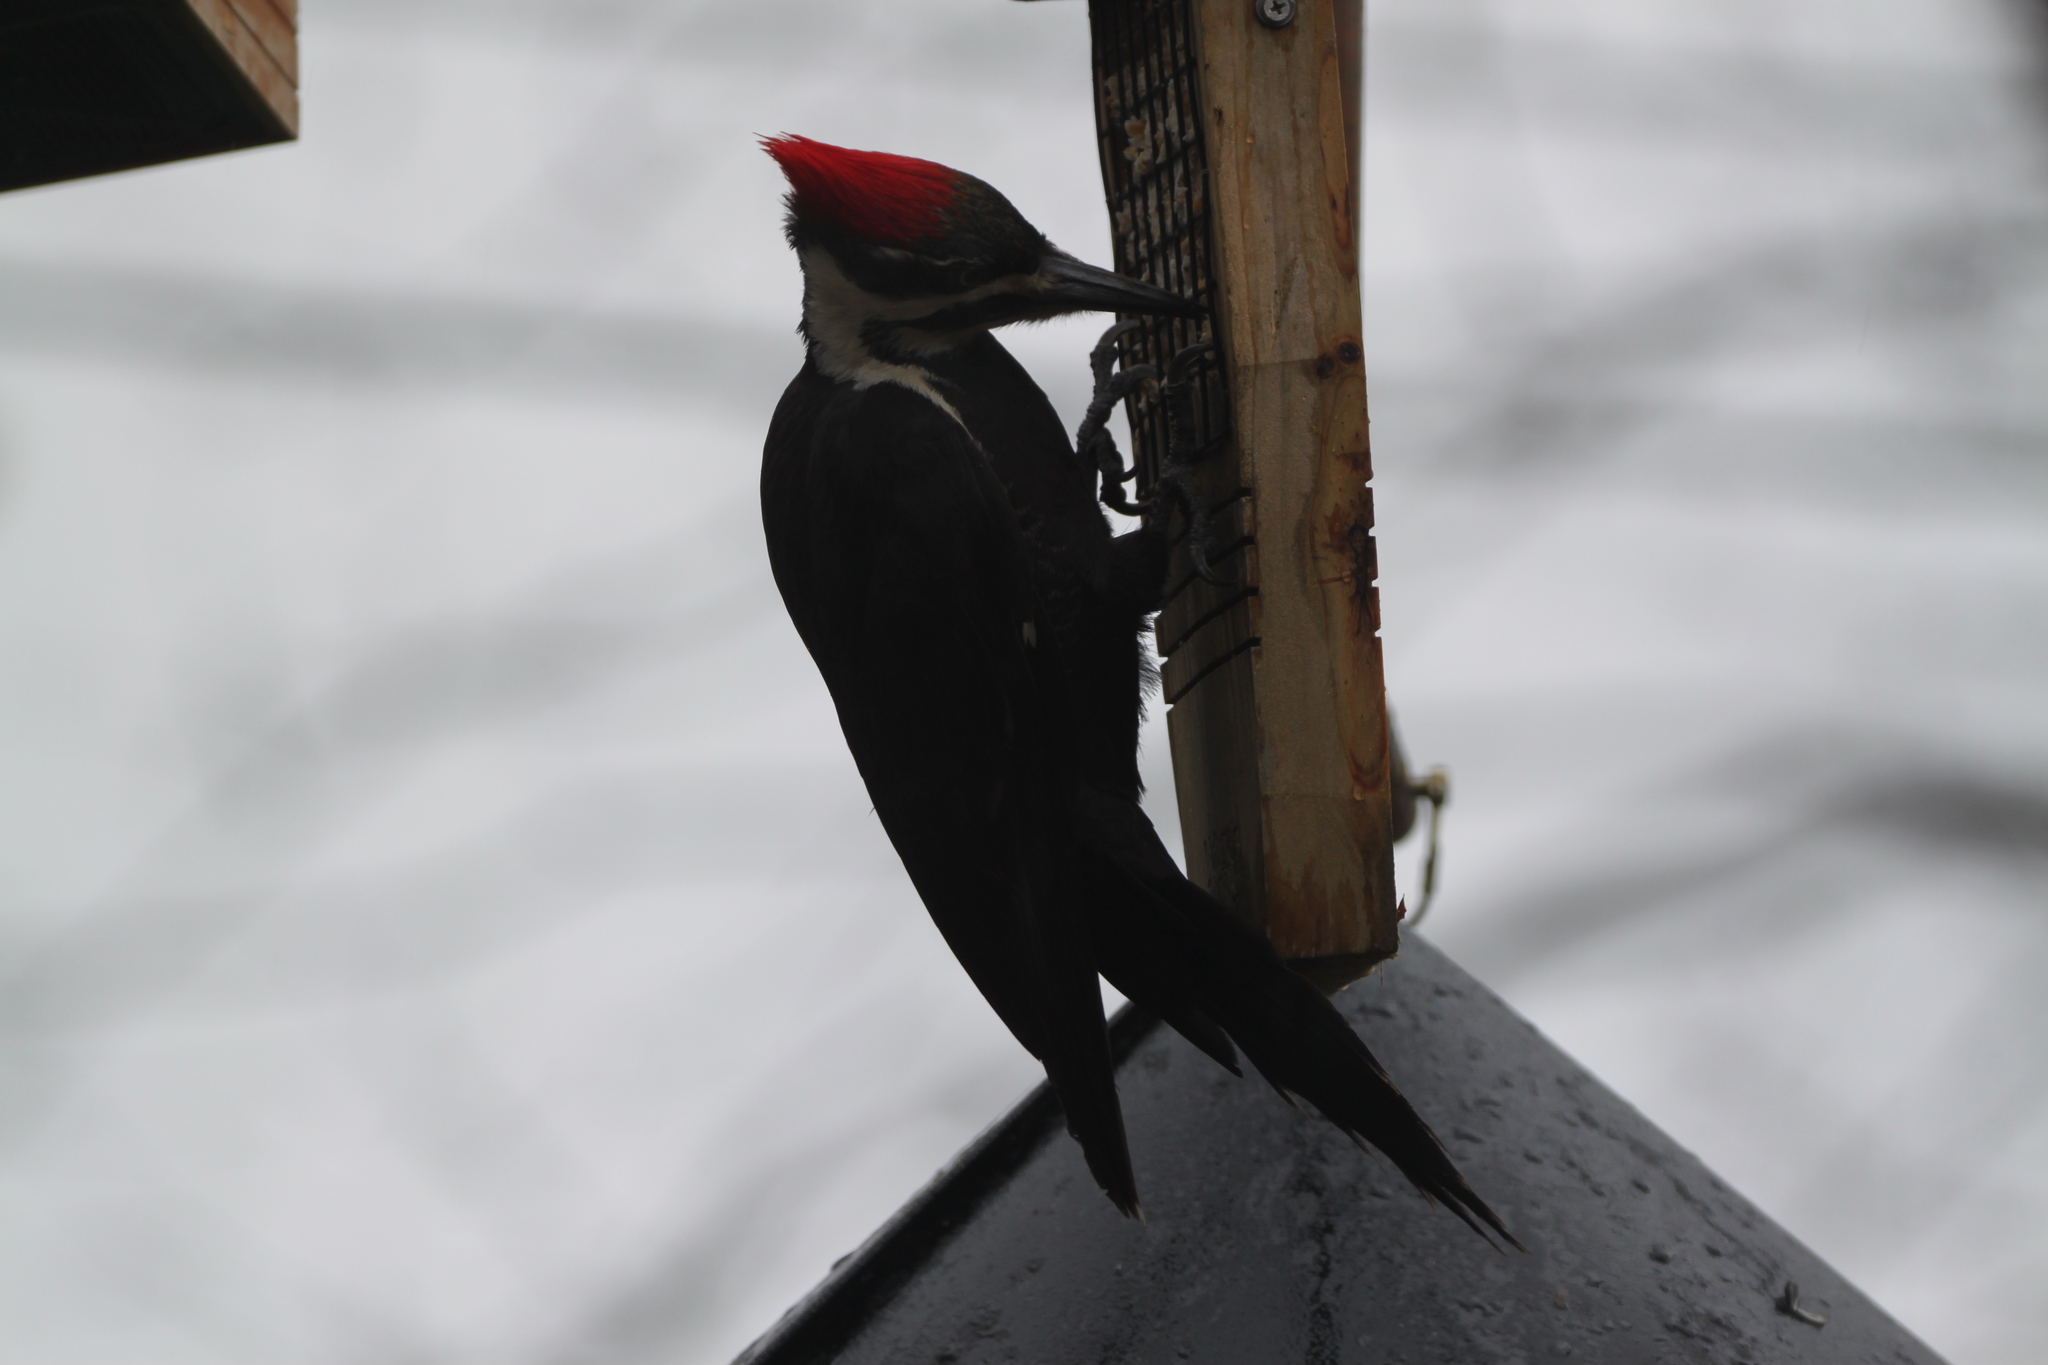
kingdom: Animalia
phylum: Chordata
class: Aves
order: Piciformes
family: Picidae
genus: Dryocopus
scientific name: Dryocopus pileatus
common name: Pileated woodpecker
